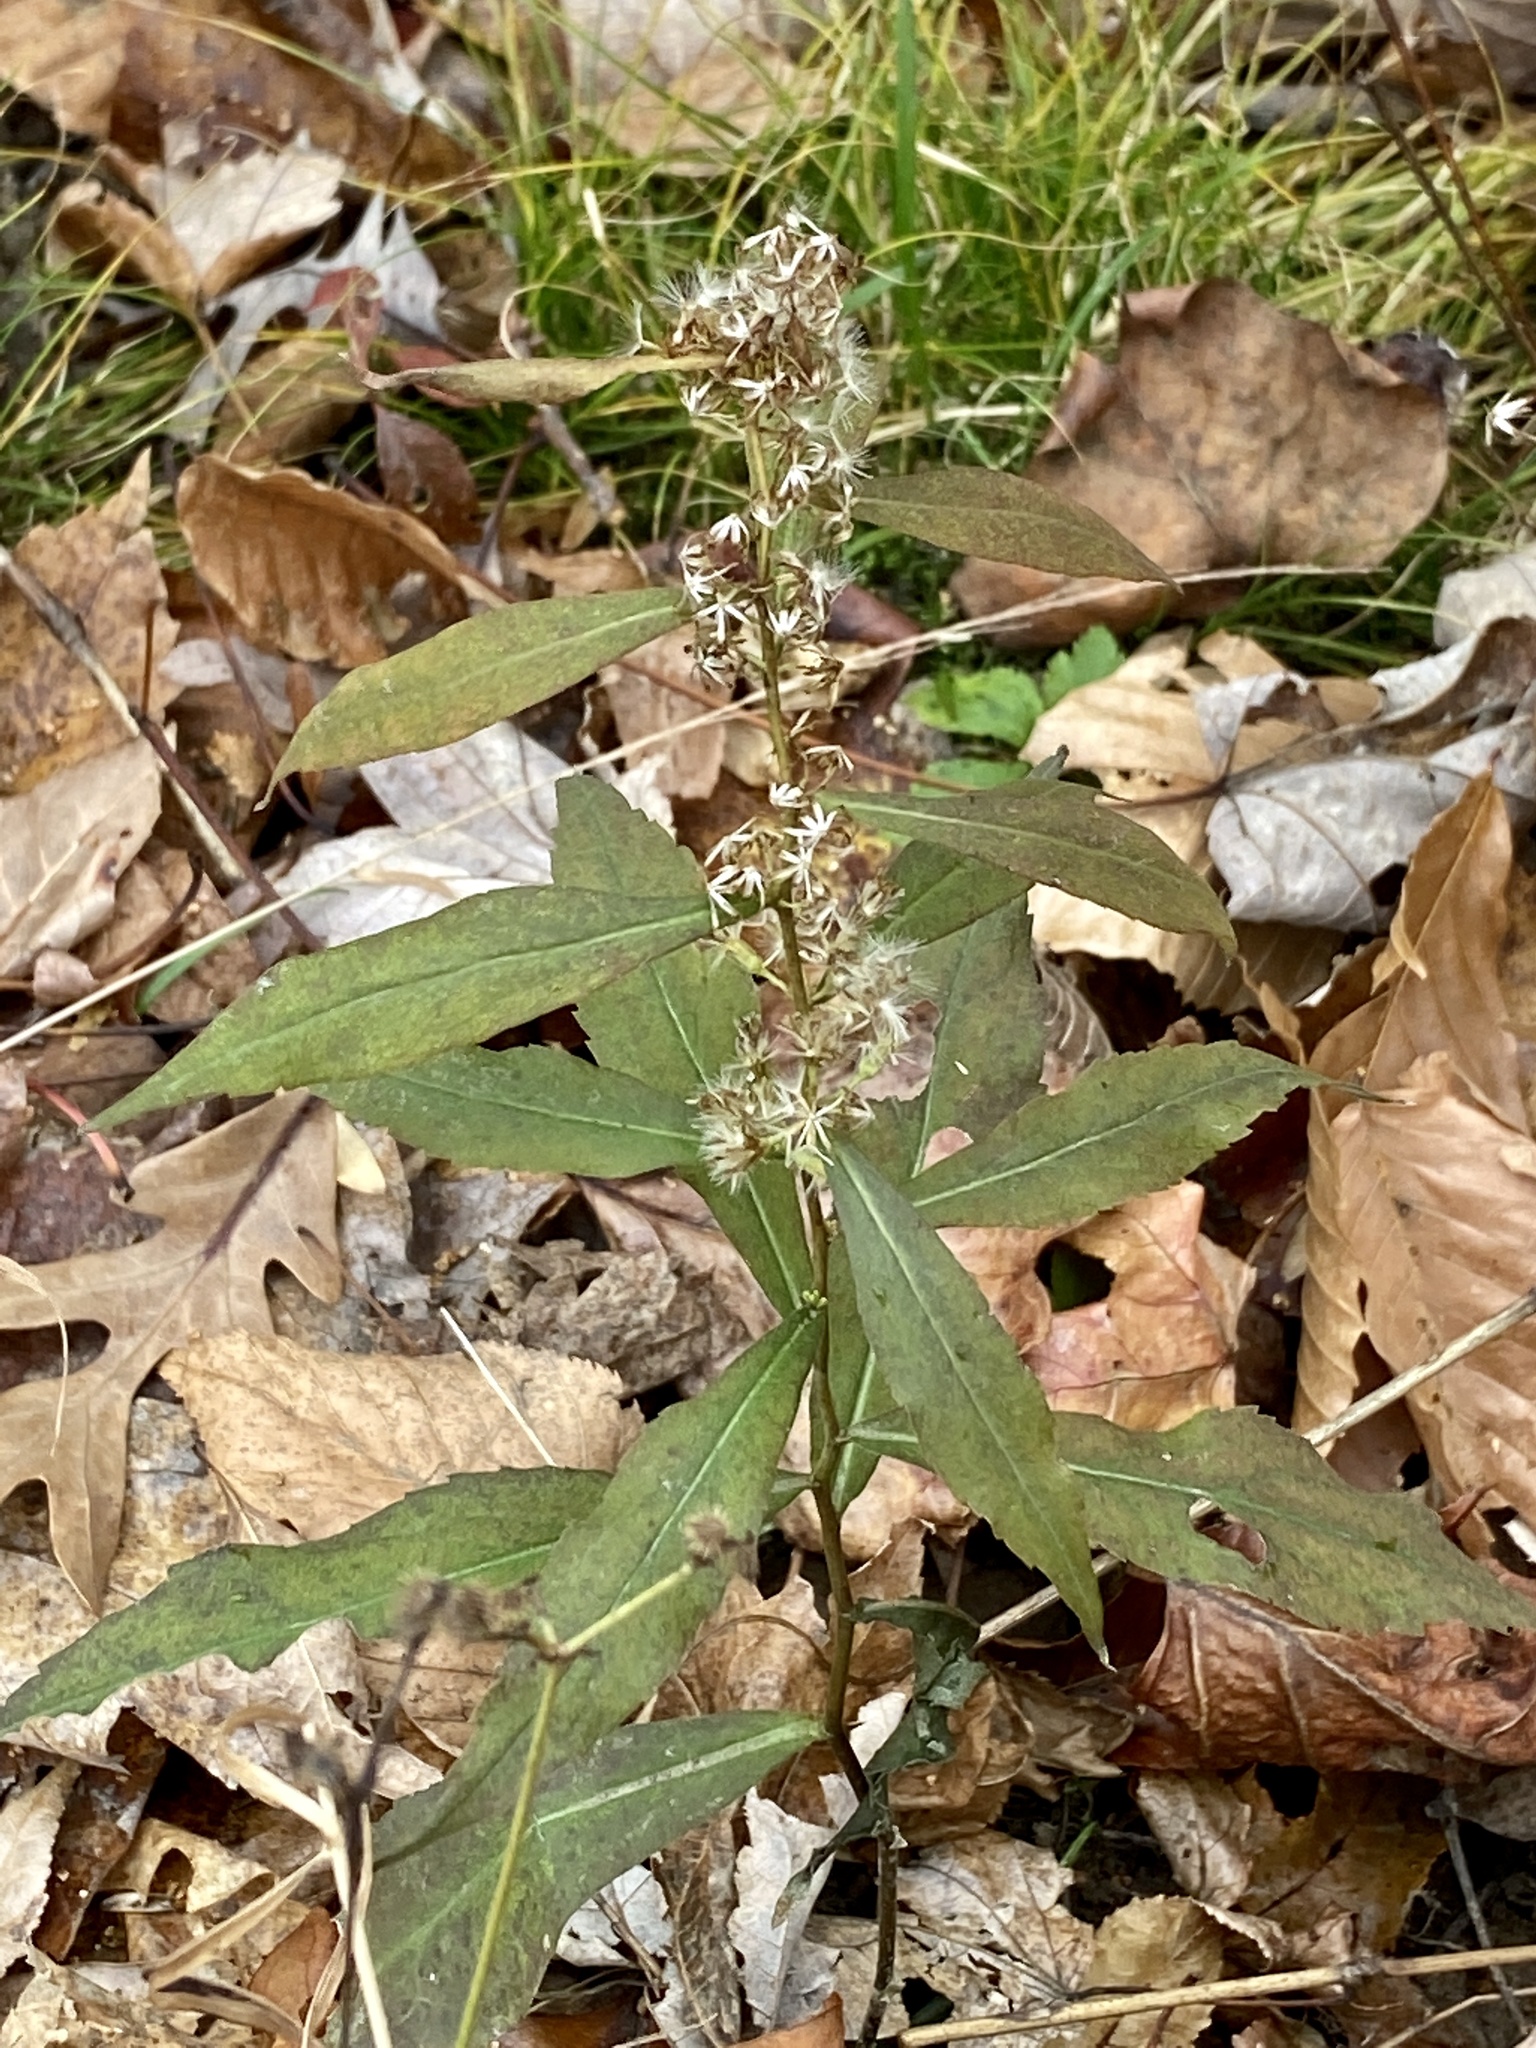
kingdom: Plantae
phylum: Tracheophyta
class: Magnoliopsida
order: Asterales
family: Asteraceae
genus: Solidago
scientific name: Solidago caesia
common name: Woodland goldenrod
